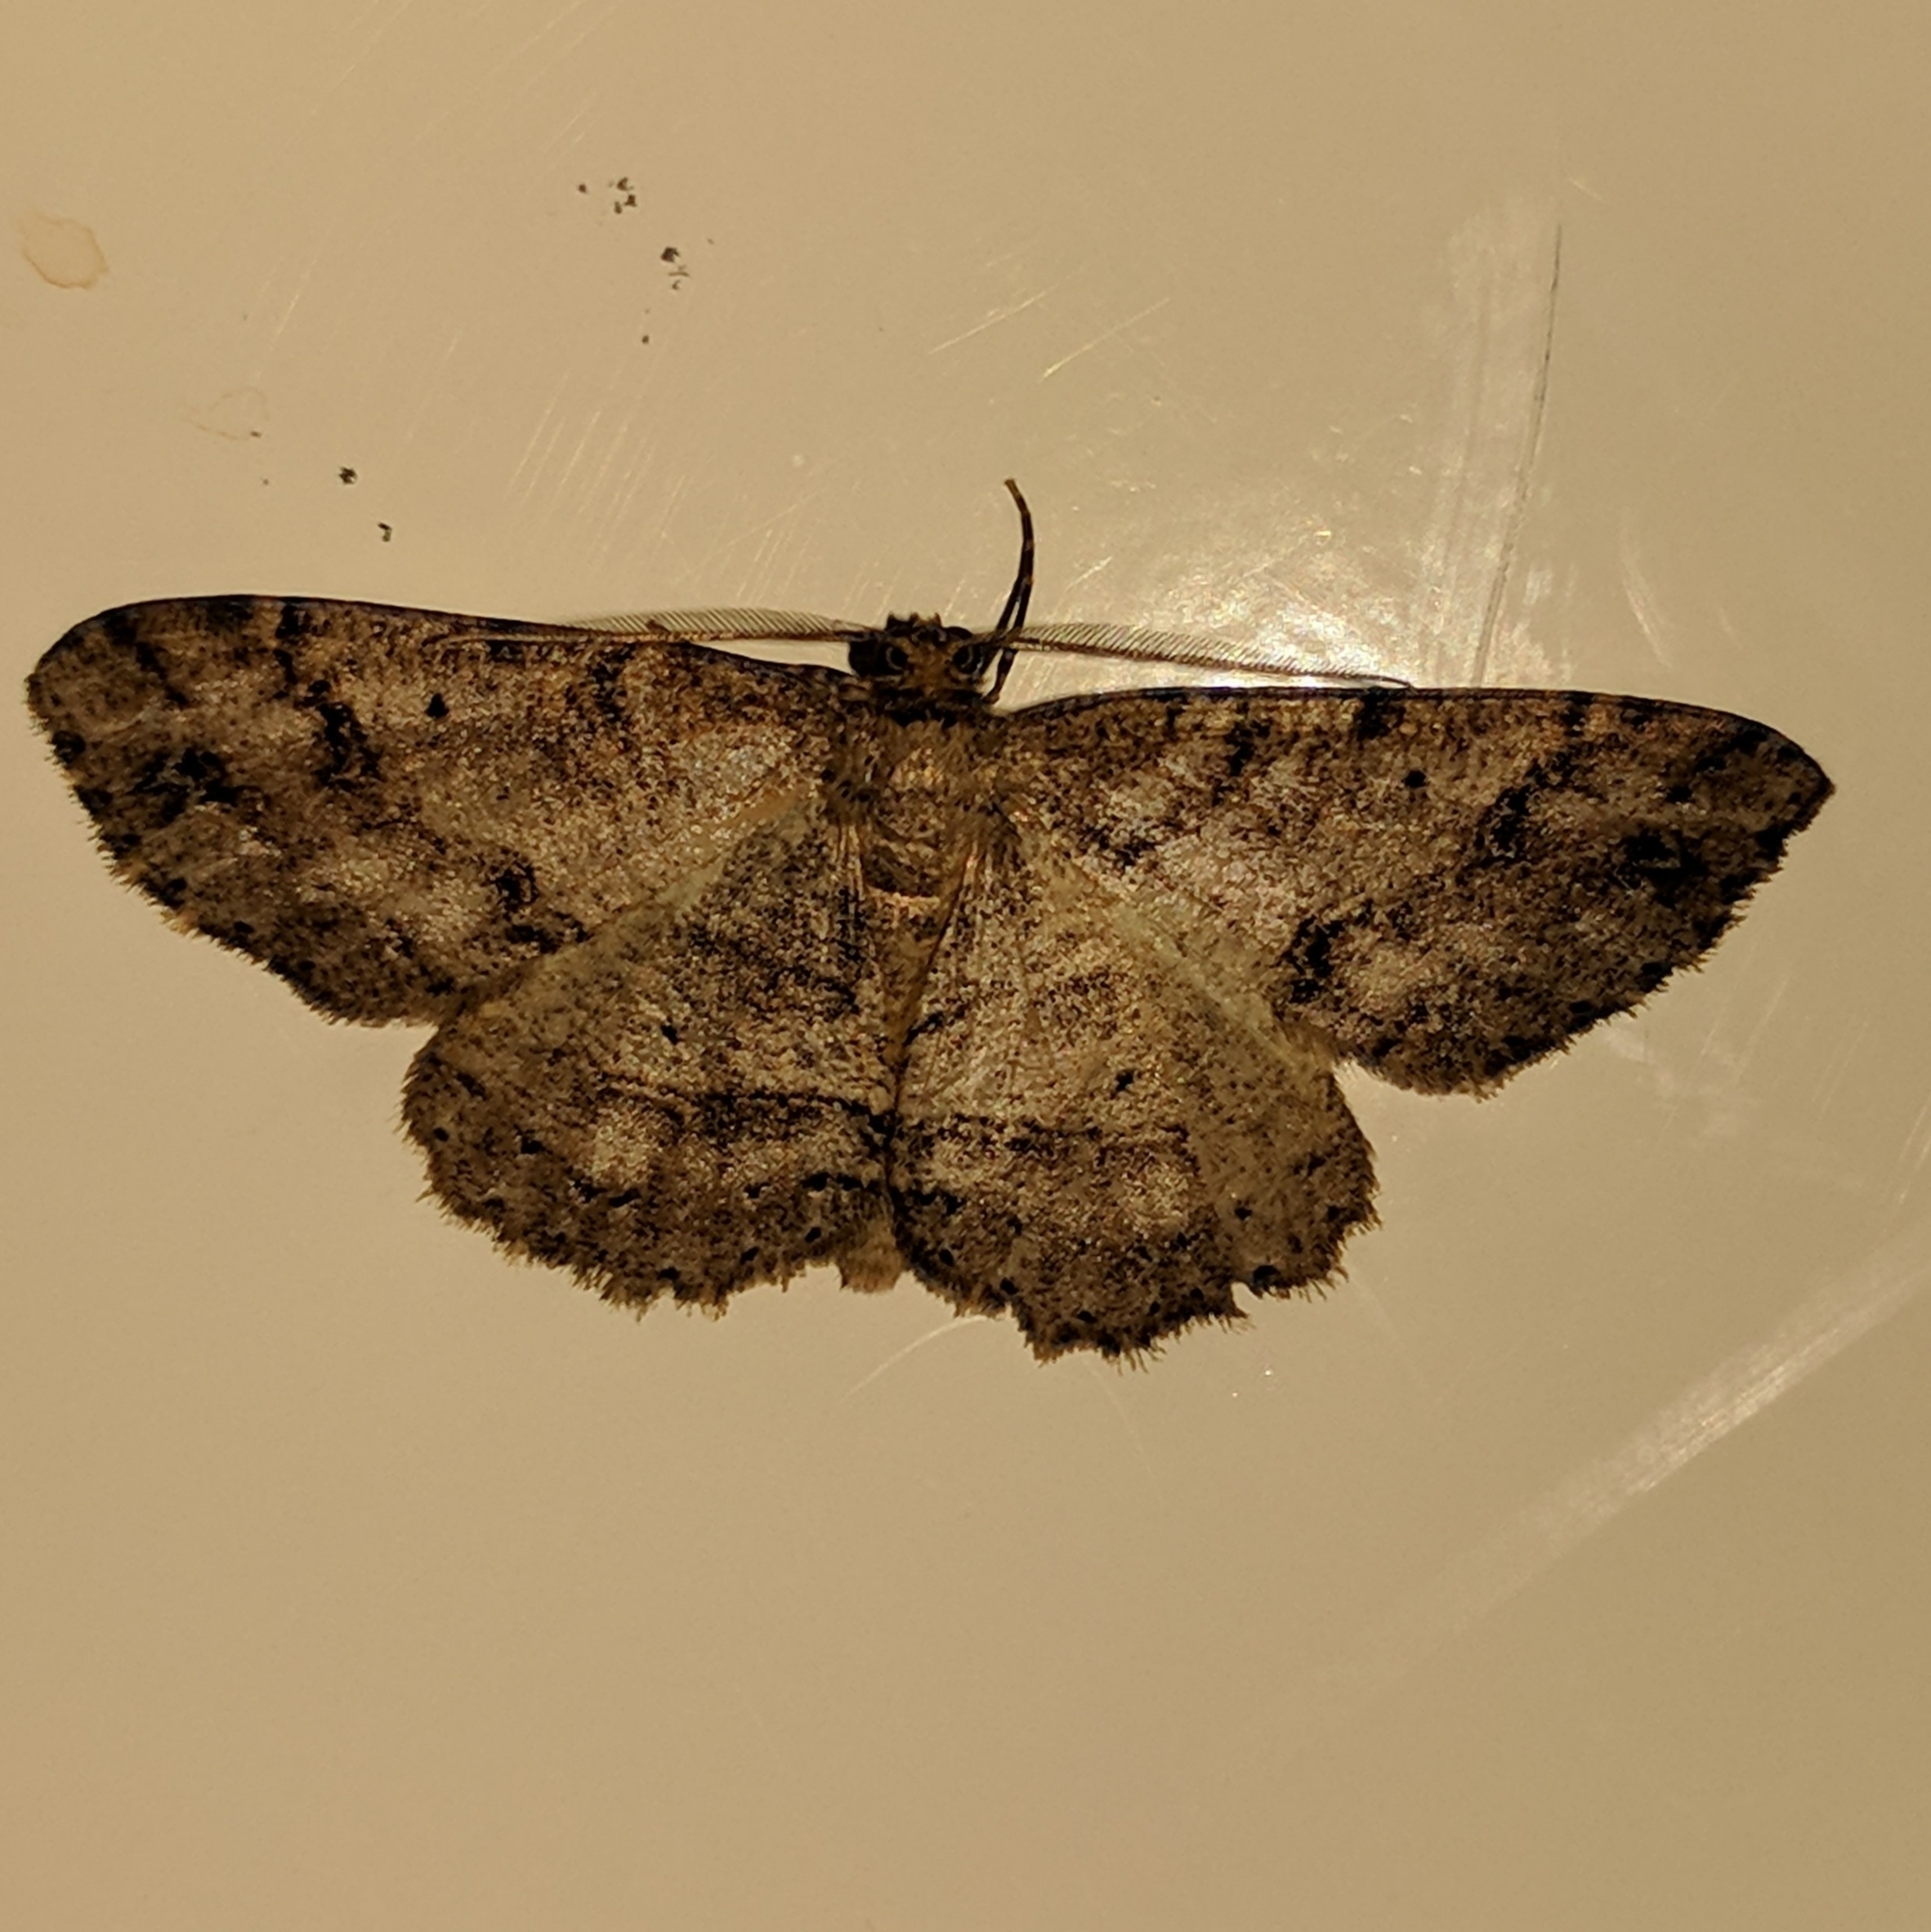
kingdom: Animalia
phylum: Arthropoda
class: Insecta
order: Lepidoptera
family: Geometridae
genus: Melanolophia
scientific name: Melanolophia signataria
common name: Signate melanolophia
